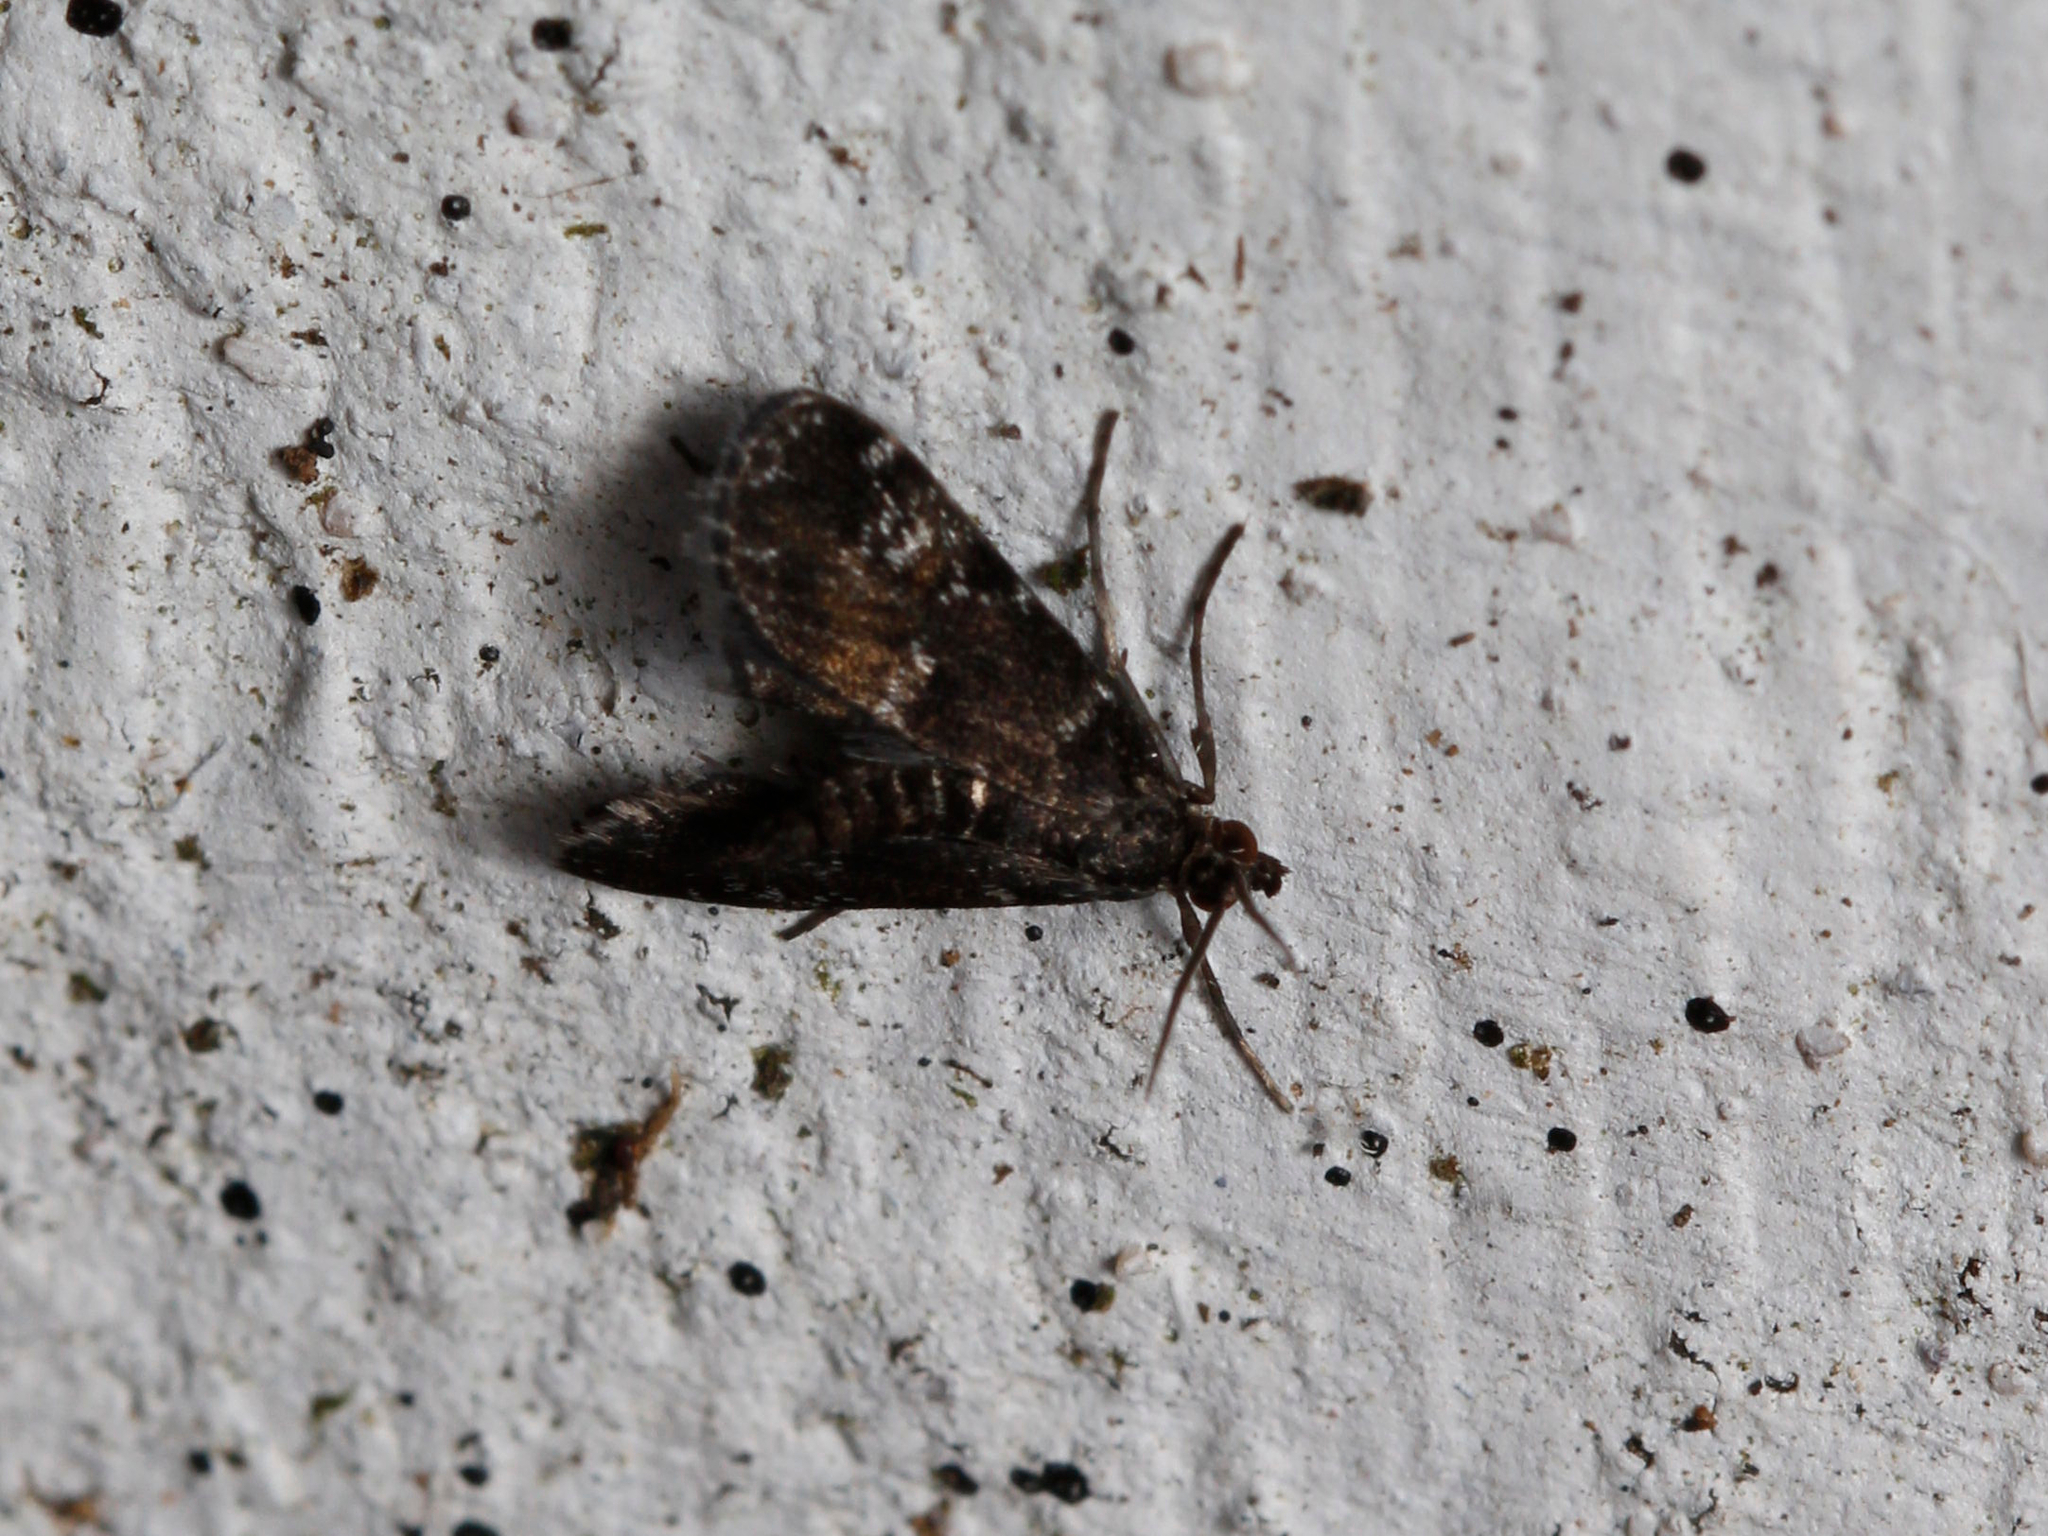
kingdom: Animalia
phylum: Arthropoda
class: Insecta
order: Lepidoptera
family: Crambidae
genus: Elophila
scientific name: Elophila obliteralis
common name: Waterlily leafcutter moth
